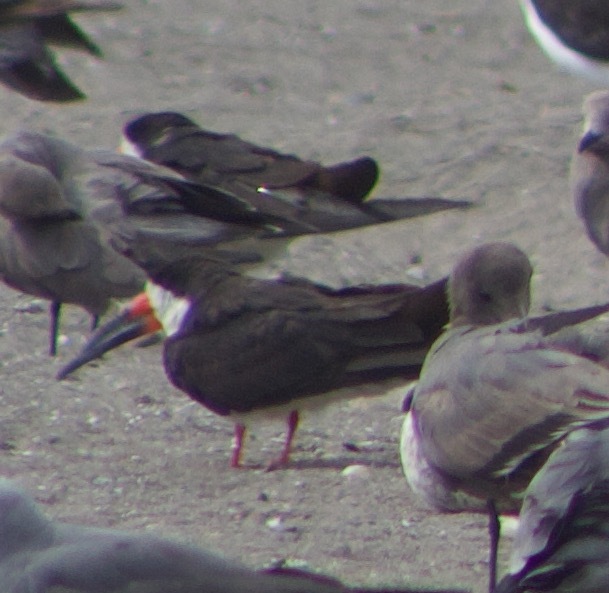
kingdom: Animalia
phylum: Chordata
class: Aves
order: Charadriiformes
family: Laridae
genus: Rynchops
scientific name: Rynchops niger
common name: Black skimmer
